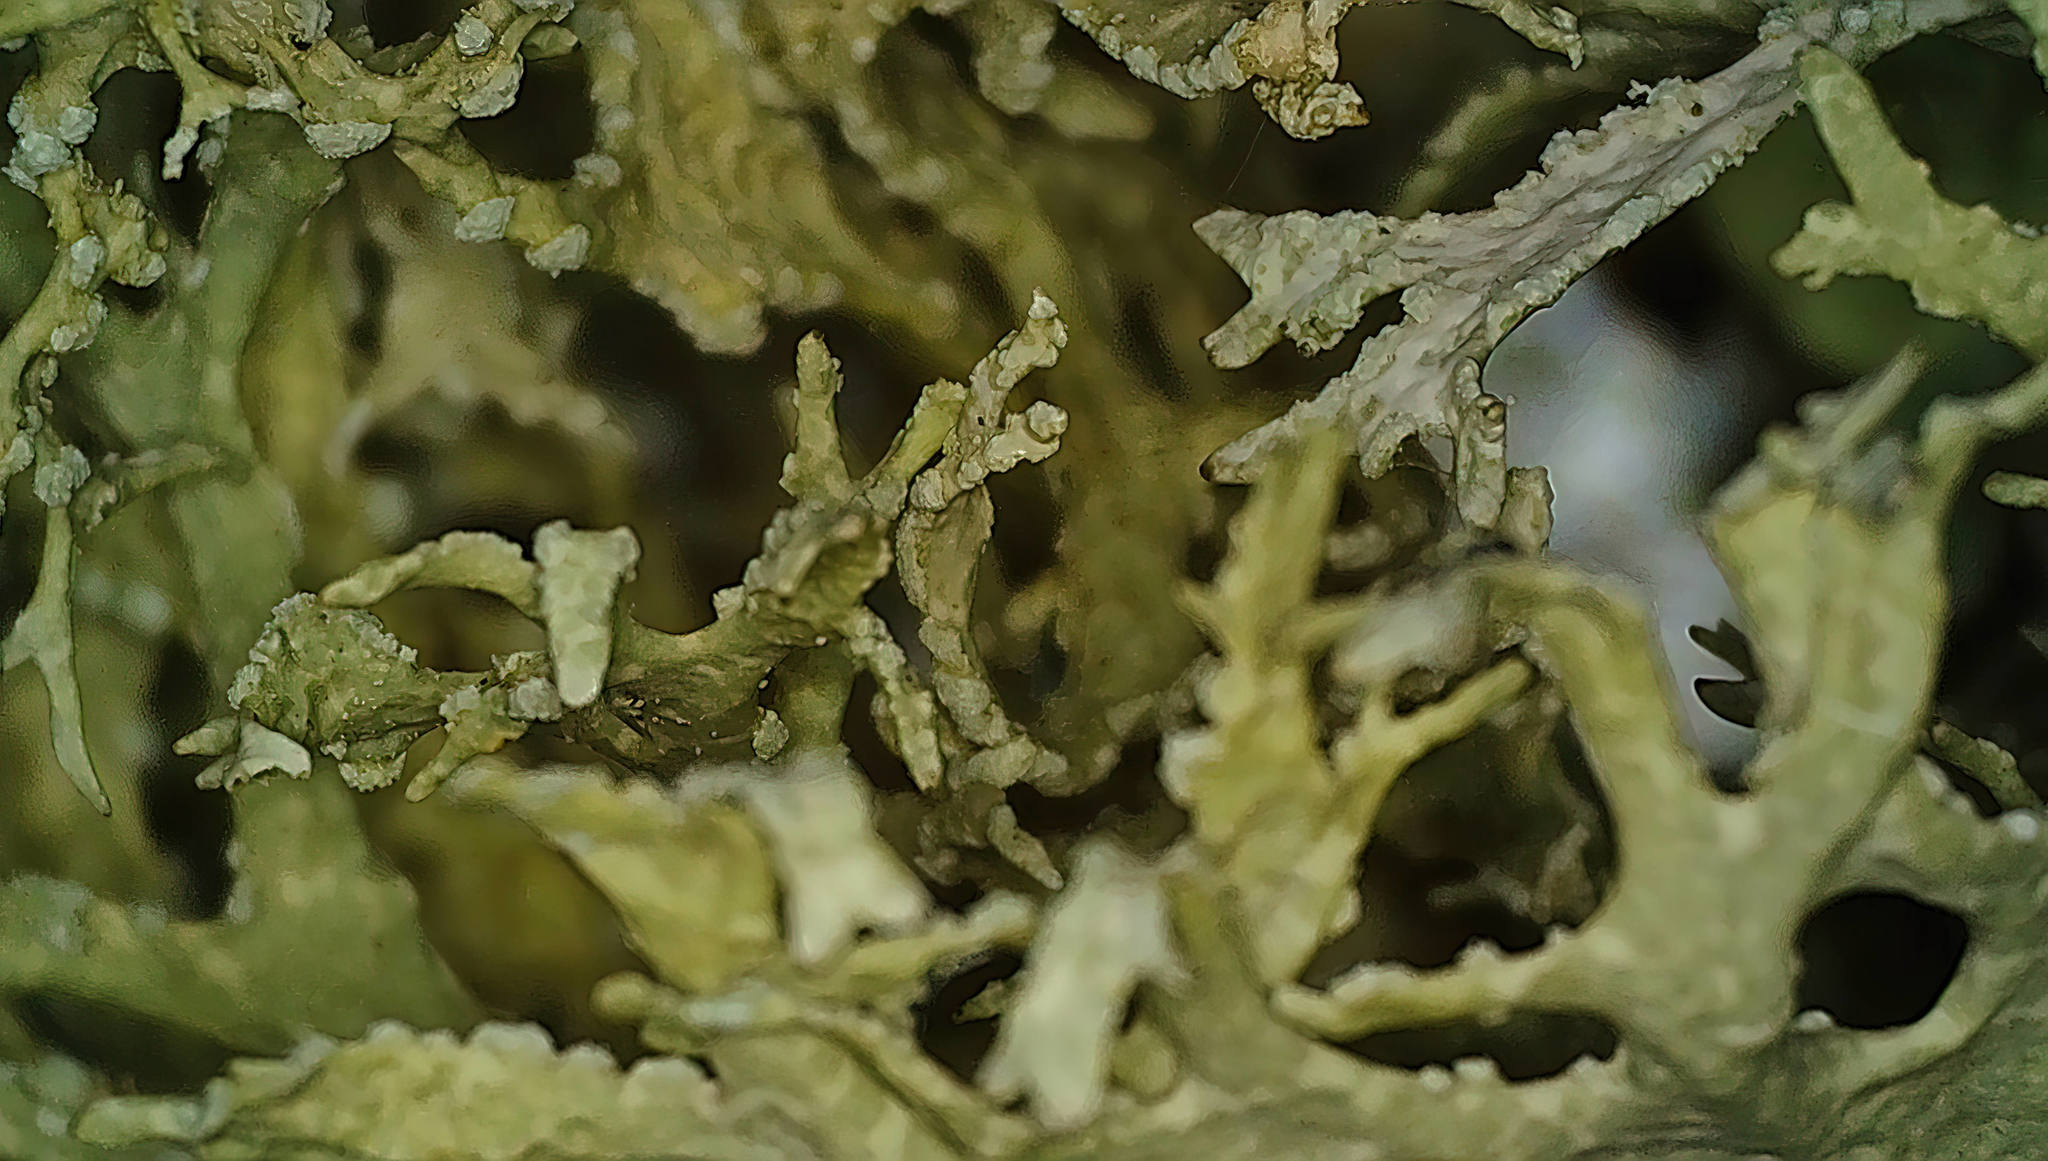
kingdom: Fungi
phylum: Ascomycota
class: Lecanoromycetes
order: Lecanorales
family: Parmeliaceae
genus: Evernia
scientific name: Evernia prunastri
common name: Oak moss
